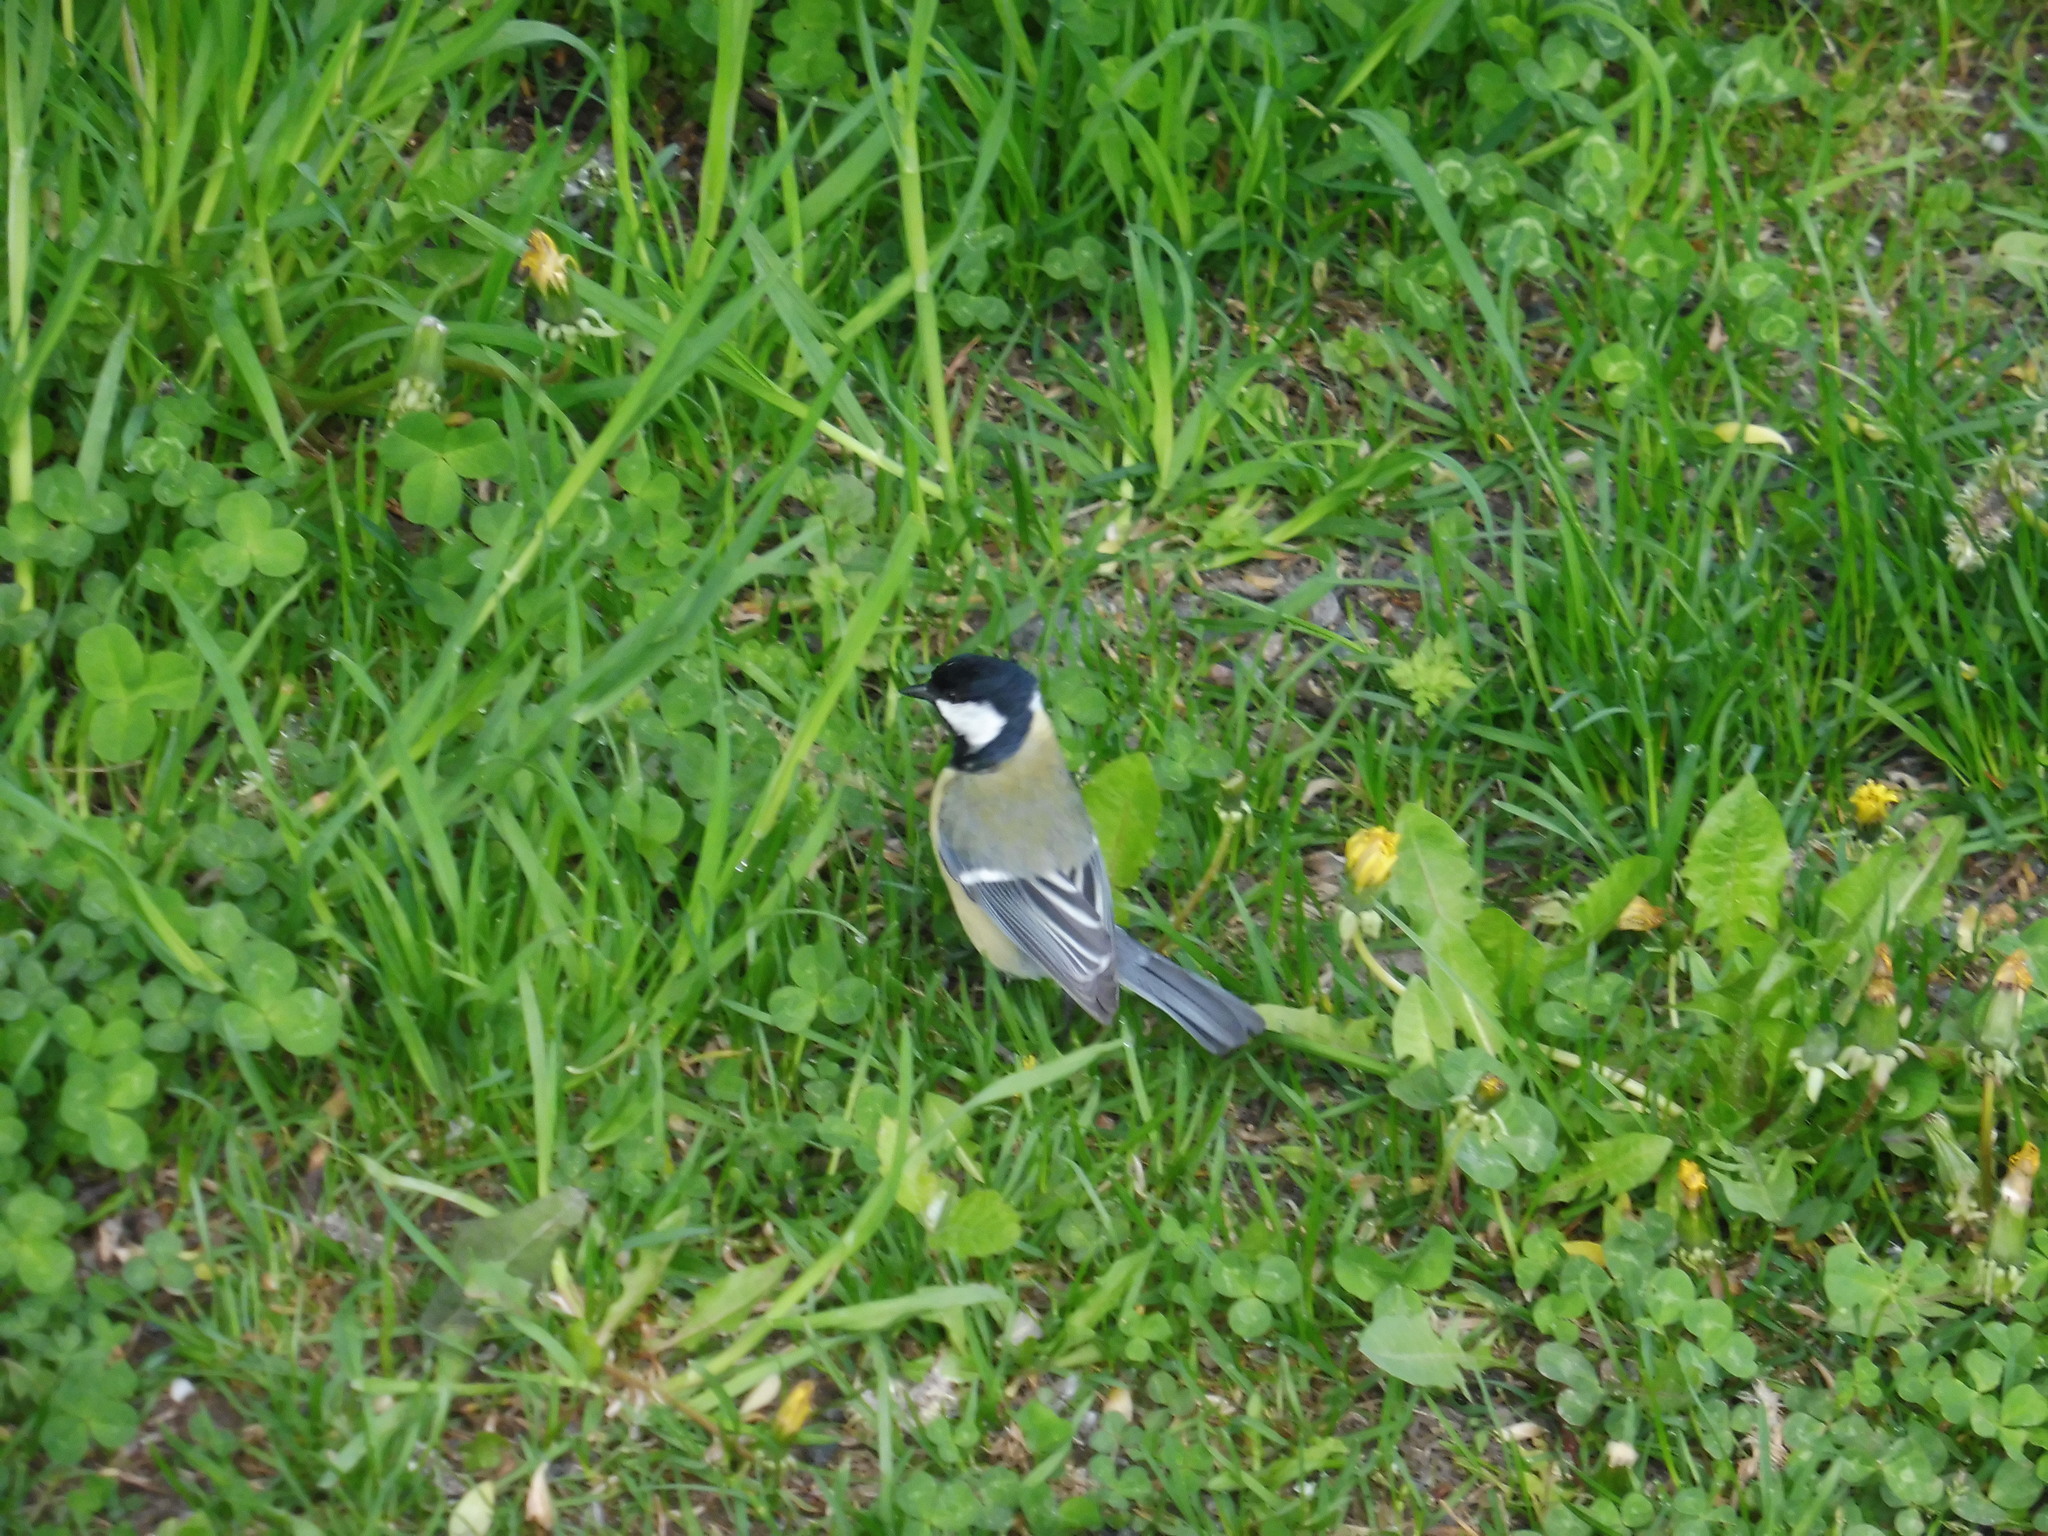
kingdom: Animalia
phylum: Chordata
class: Aves
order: Passeriformes
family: Paridae
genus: Parus
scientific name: Parus major
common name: Great tit
